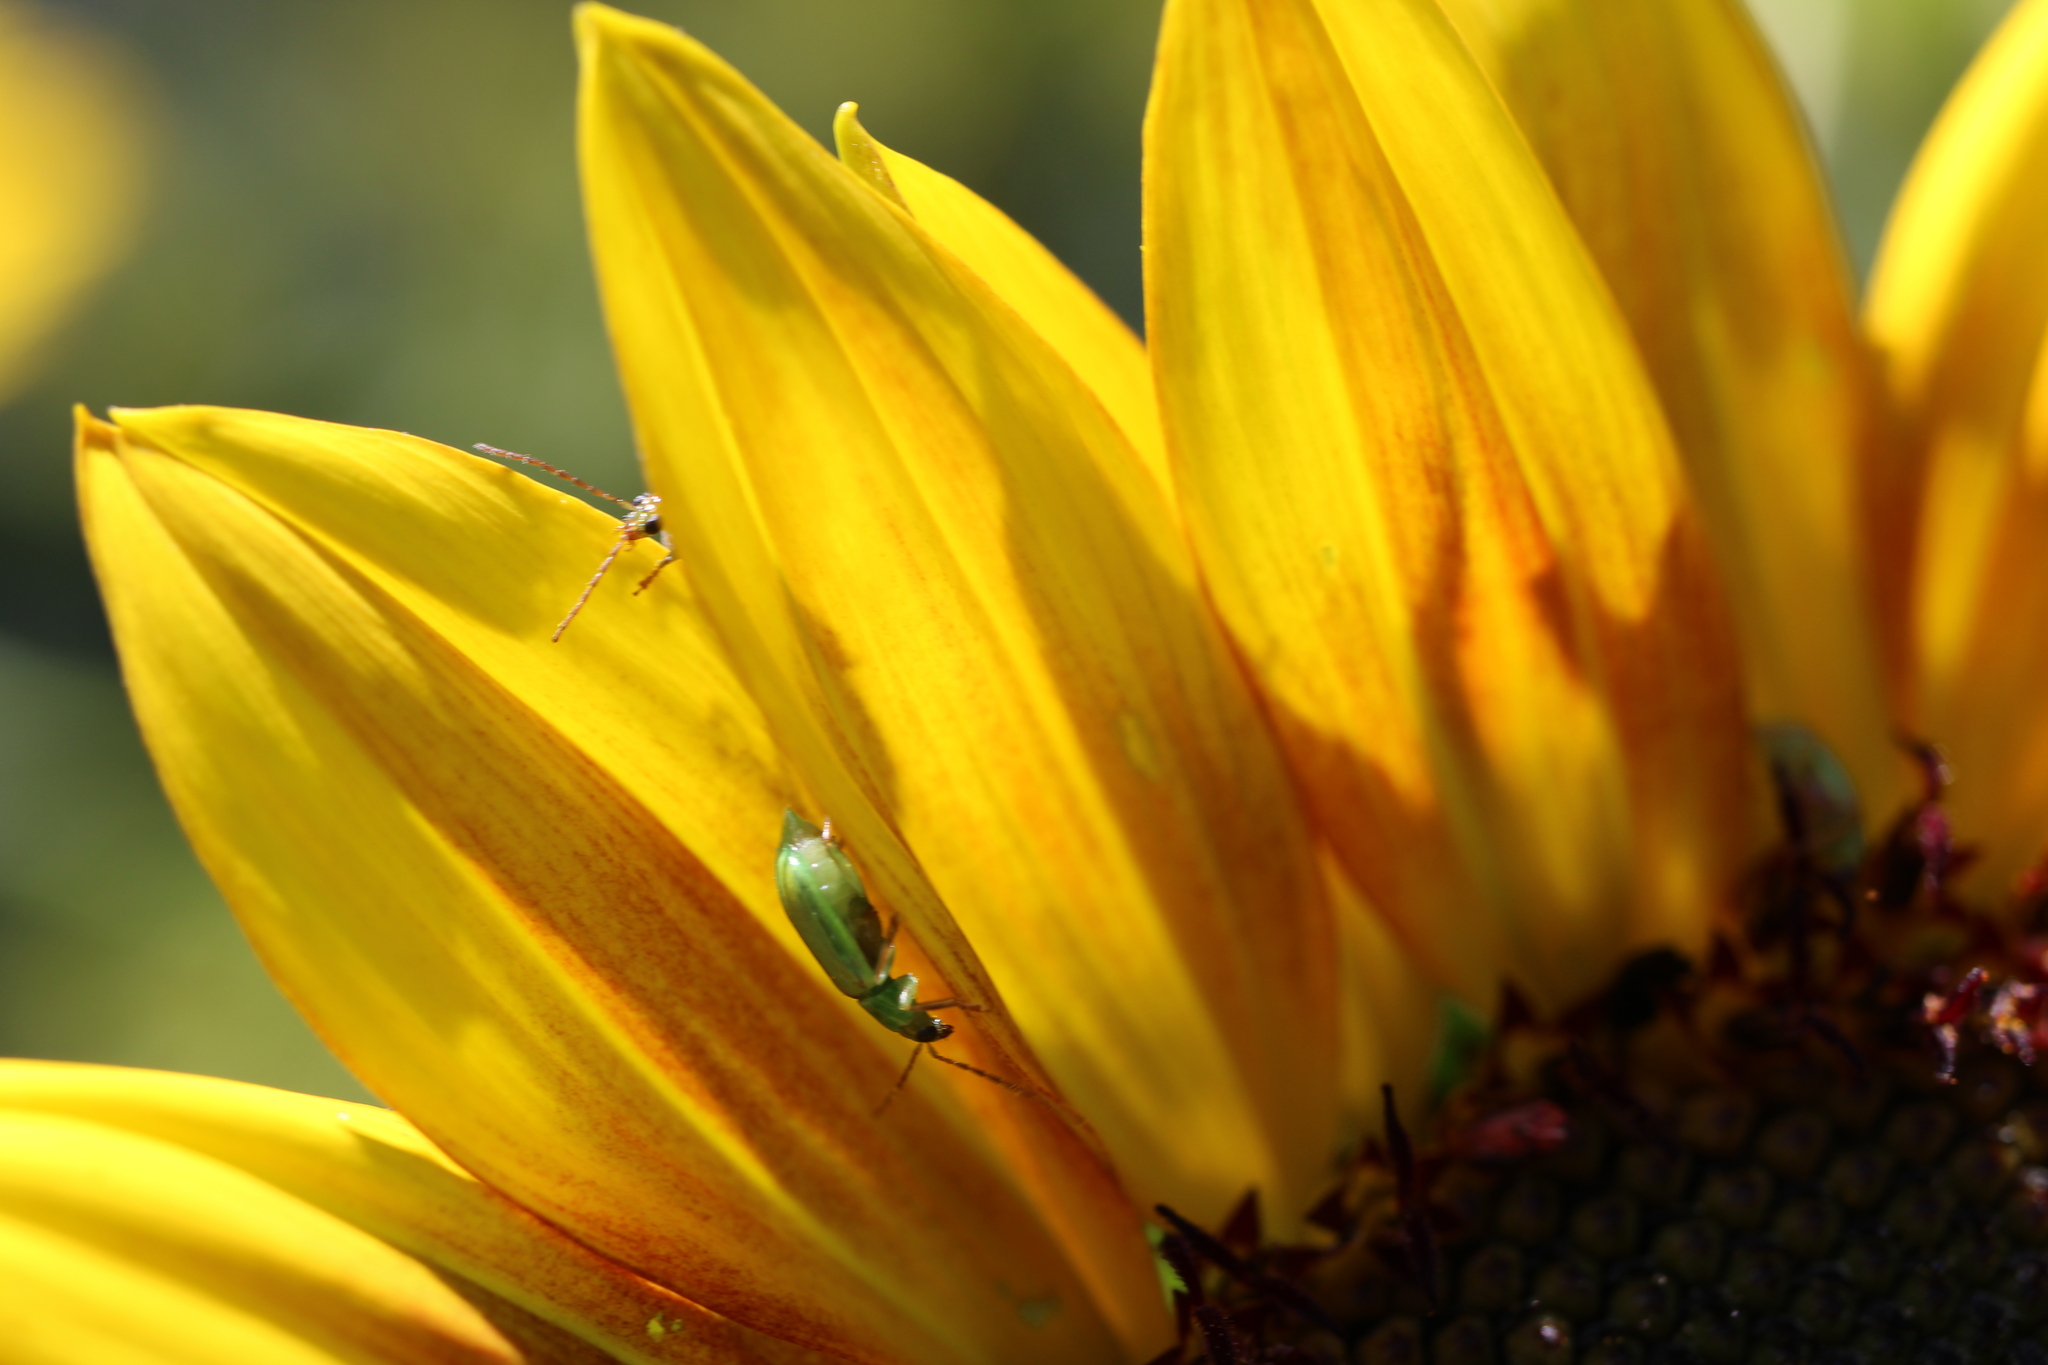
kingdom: Animalia
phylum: Arthropoda
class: Insecta
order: Coleoptera
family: Chrysomelidae
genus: Diabrotica
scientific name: Diabrotica barberi
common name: Northern corn rootworm
